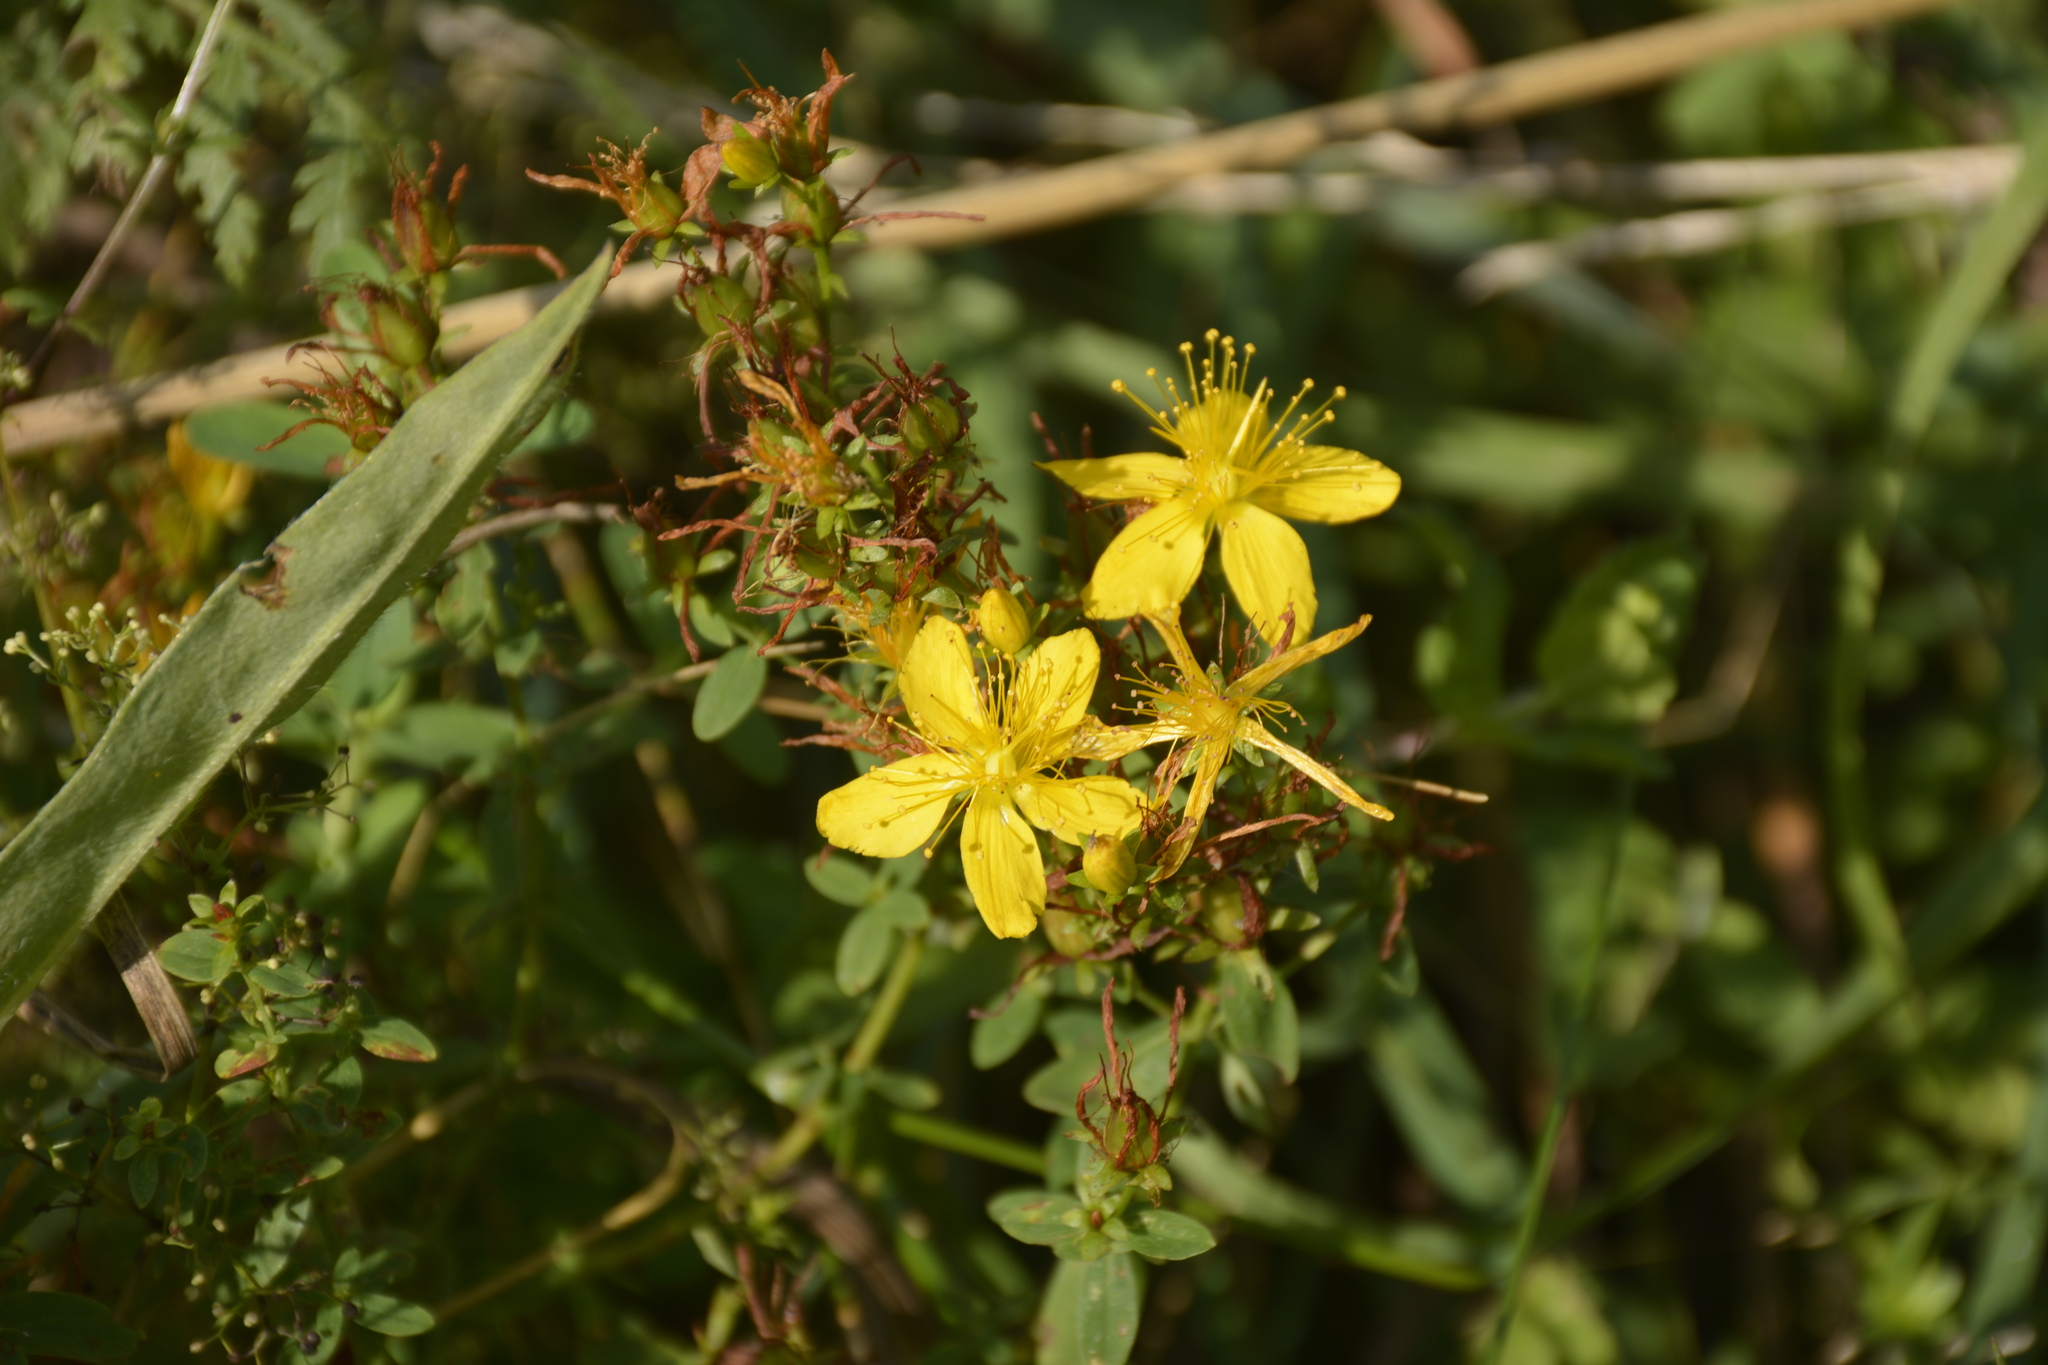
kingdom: Plantae
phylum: Tracheophyta
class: Magnoliopsida
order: Malpighiales
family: Hypericaceae
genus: Hypericum
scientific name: Hypericum perforatum
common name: Common st. johnswort
